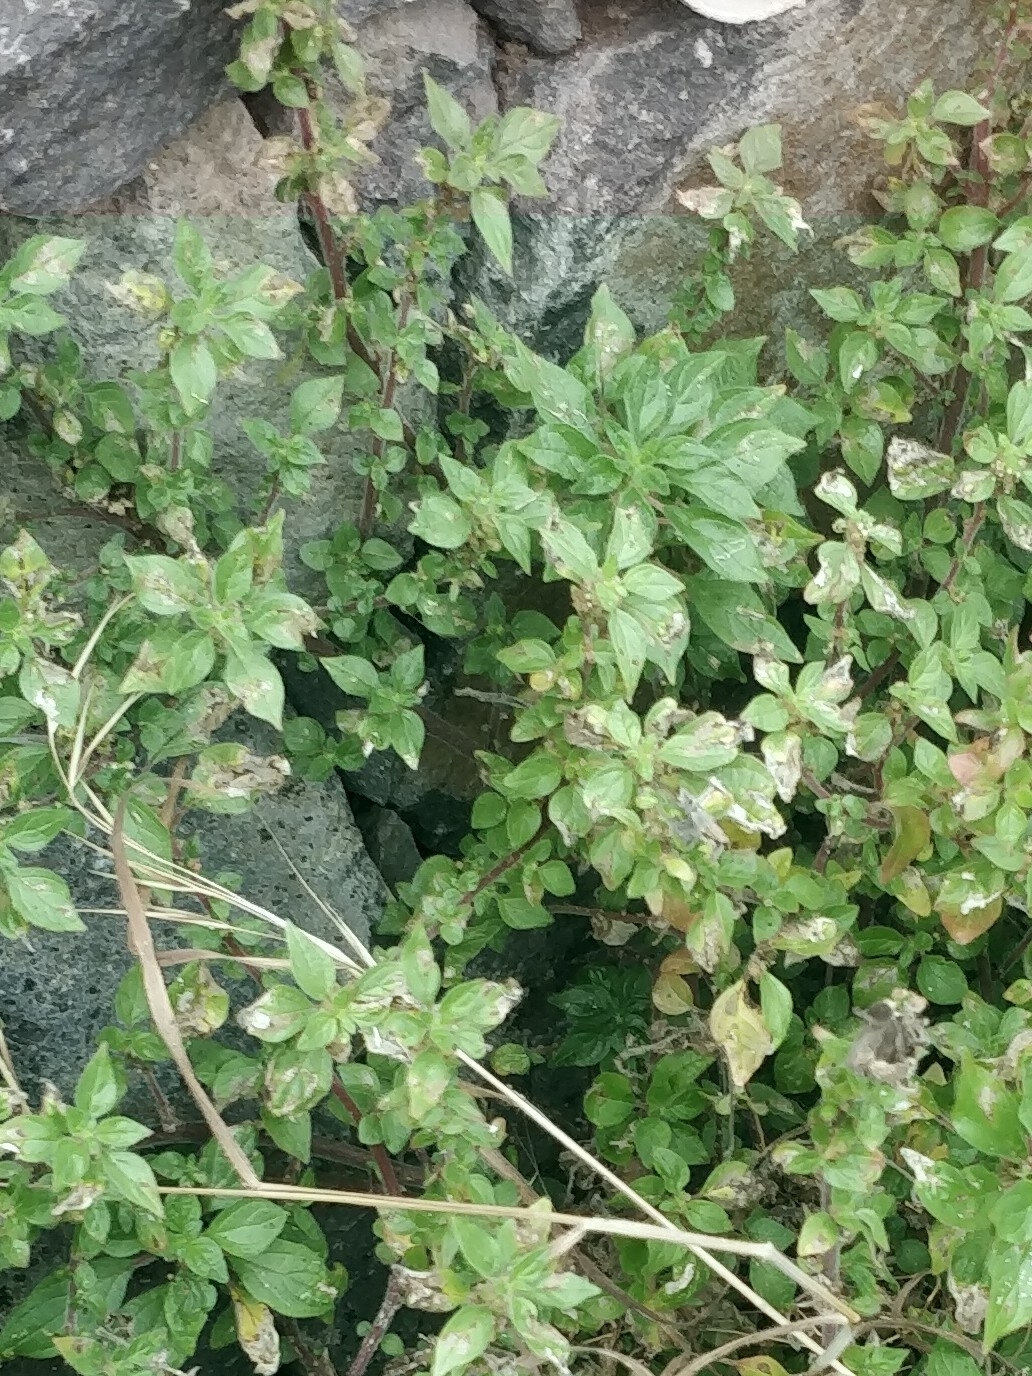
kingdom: Plantae
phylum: Tracheophyta
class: Magnoliopsida
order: Rosales
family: Urticaceae
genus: Parietaria
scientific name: Parietaria judaica
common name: Pellitory-of-the-wall
